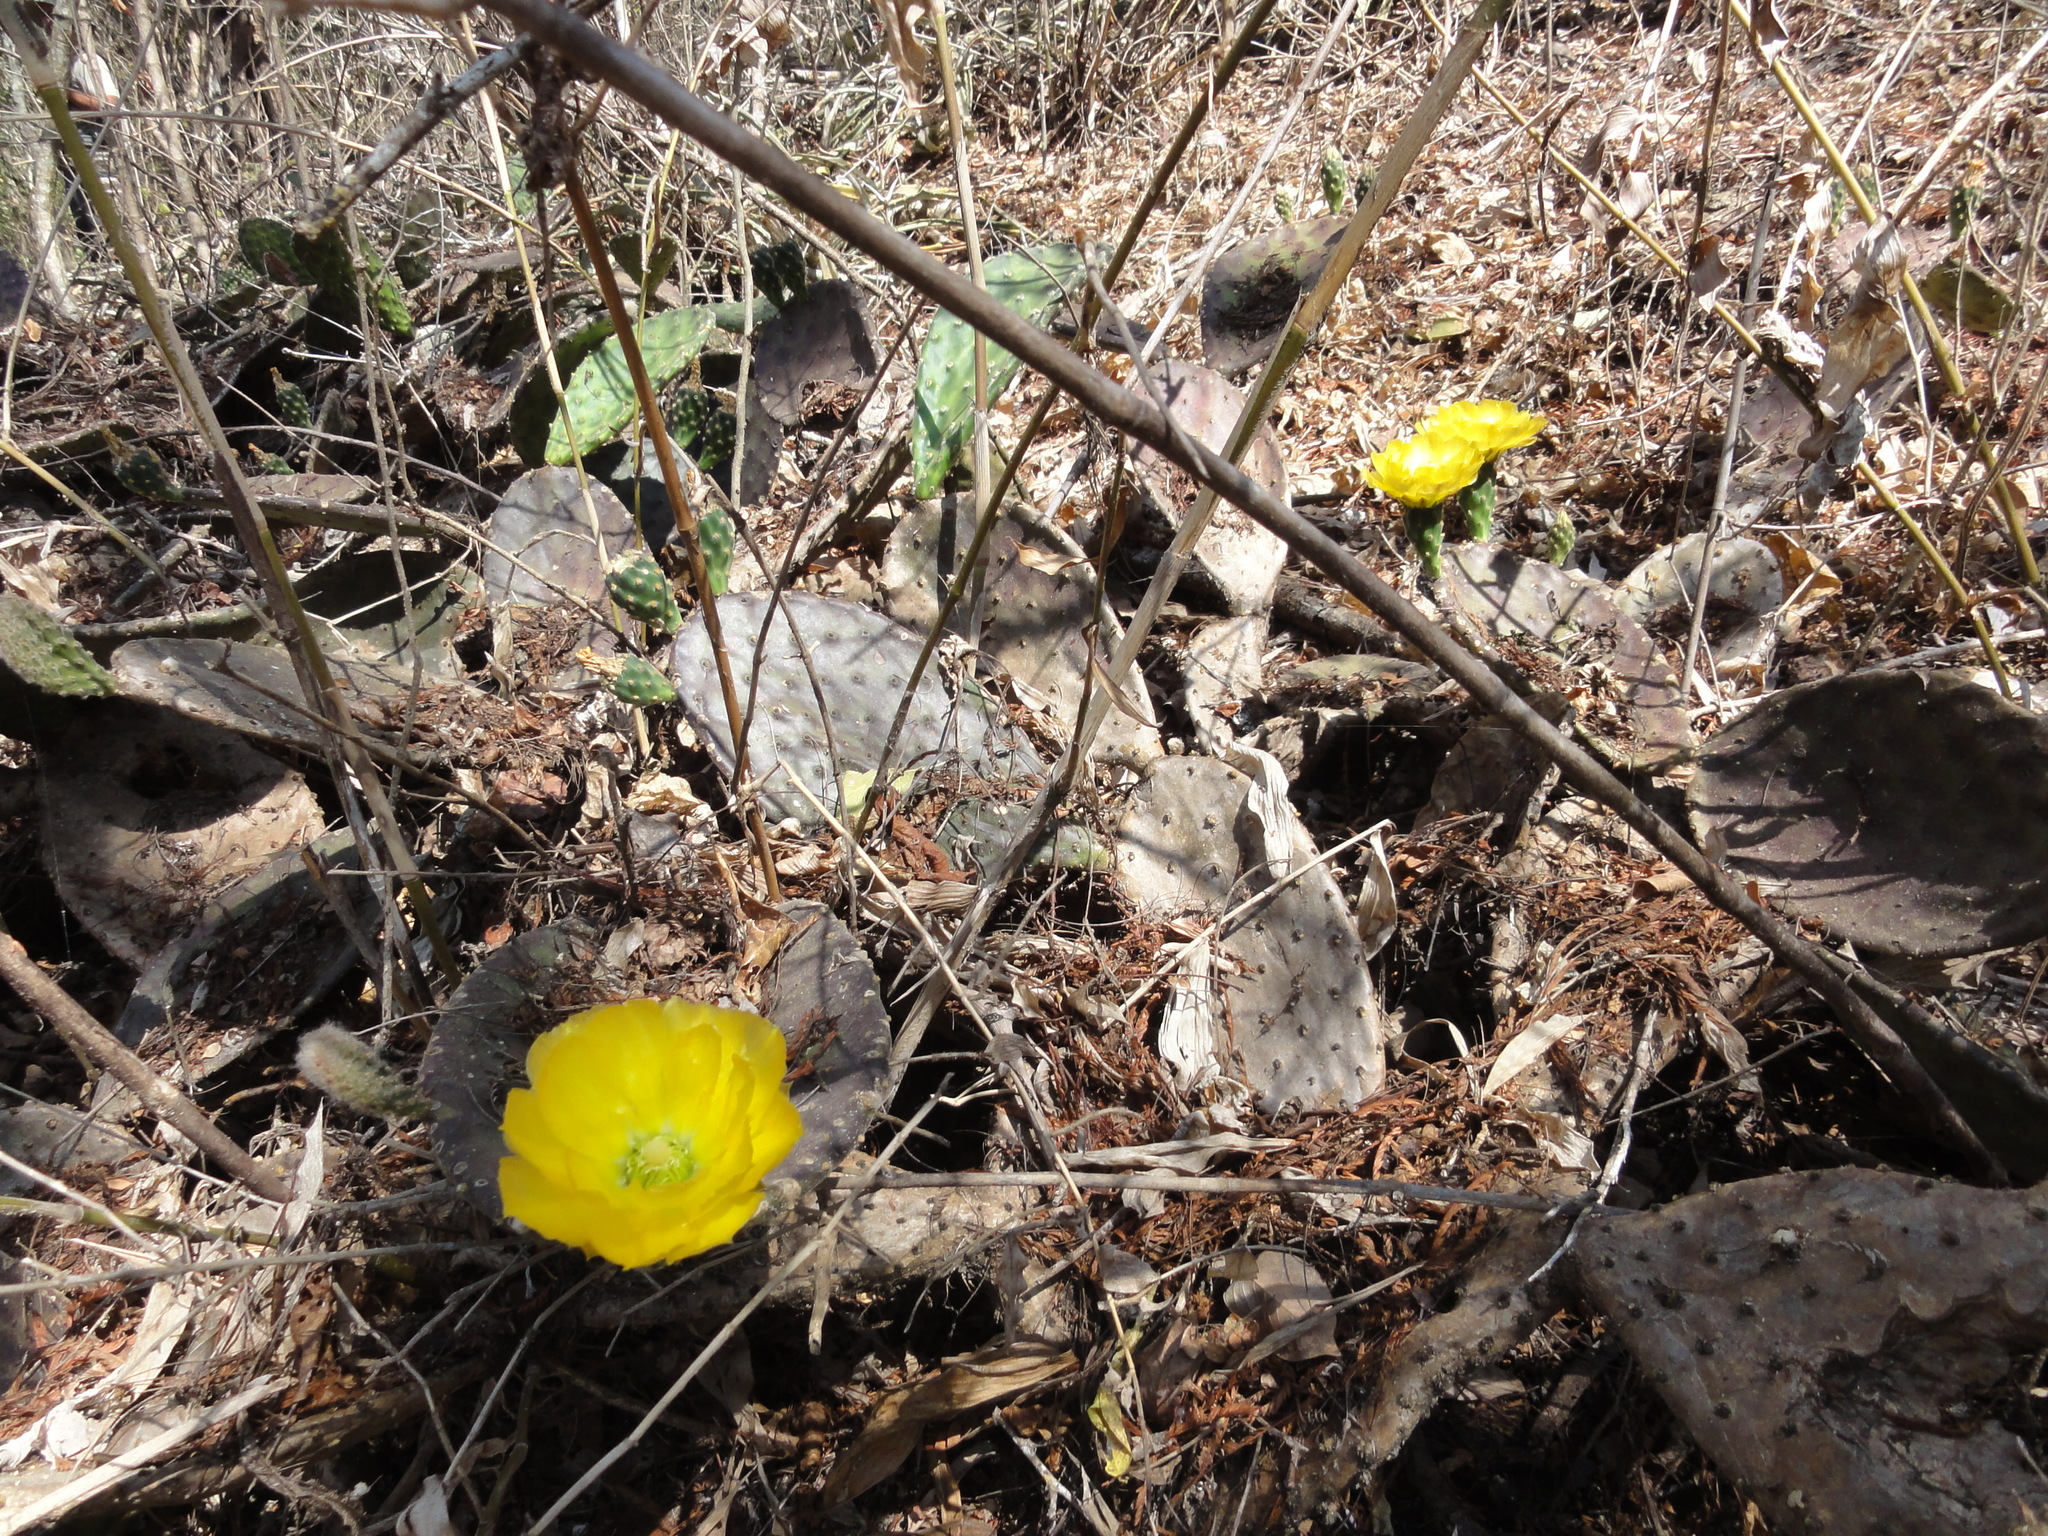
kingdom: Plantae
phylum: Tracheophyta
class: Magnoliopsida
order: Caryophyllales
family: Cactaceae
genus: Opuntia
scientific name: Opuntia decumbens
